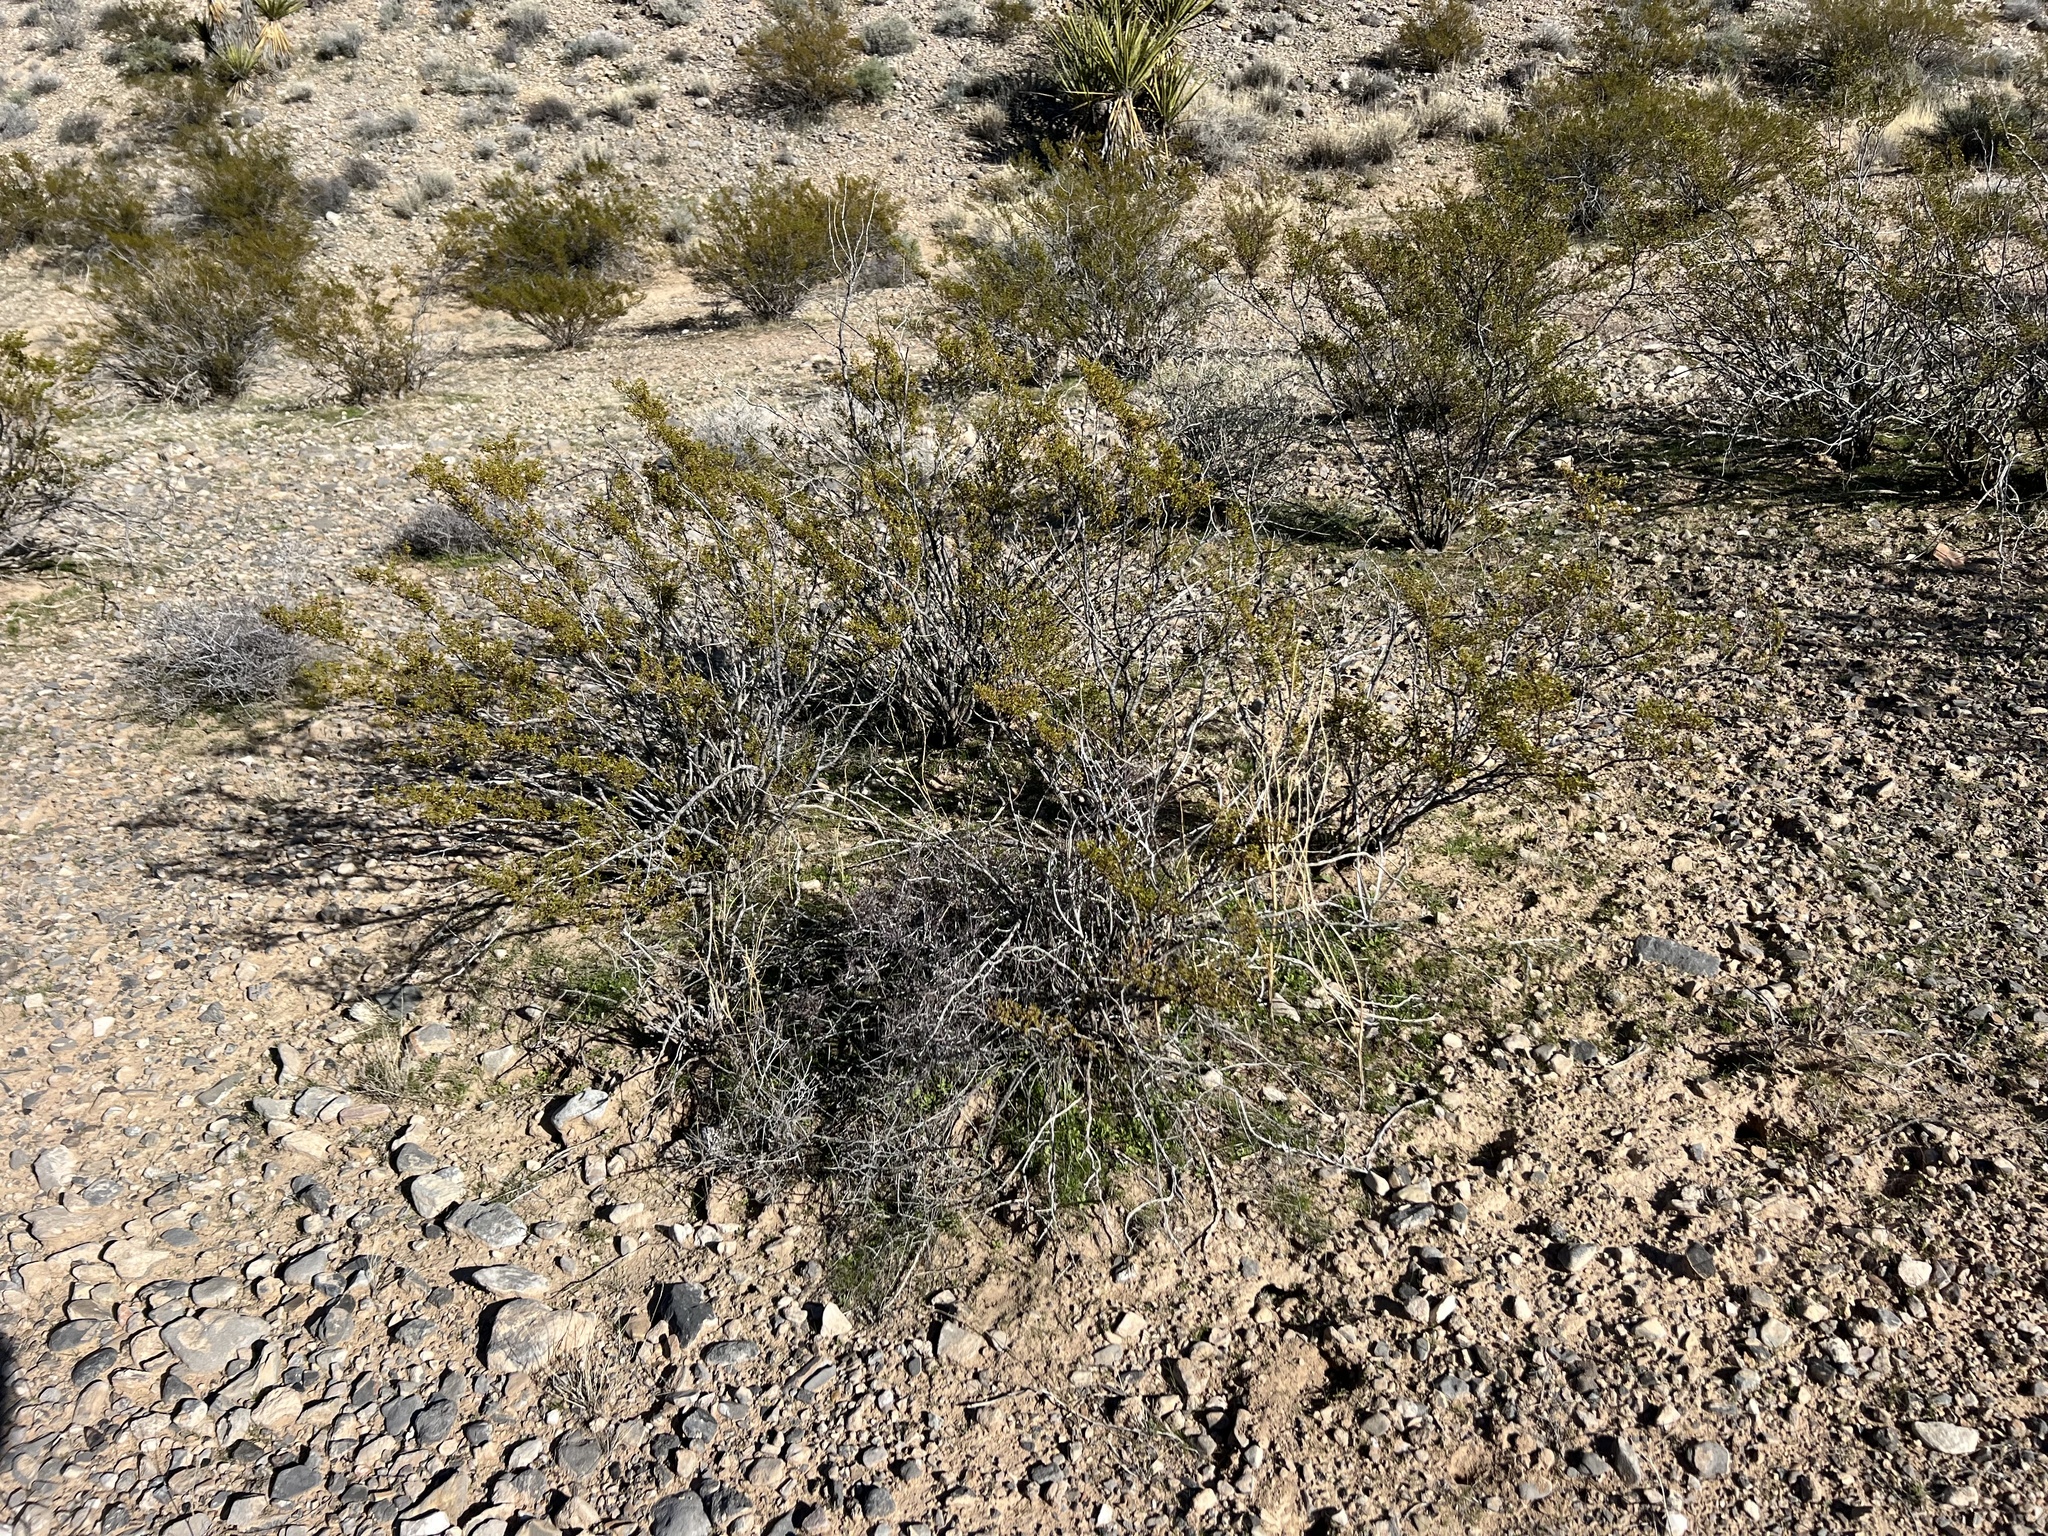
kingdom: Plantae
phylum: Tracheophyta
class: Magnoliopsida
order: Zygophyllales
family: Zygophyllaceae
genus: Larrea
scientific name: Larrea tridentata
